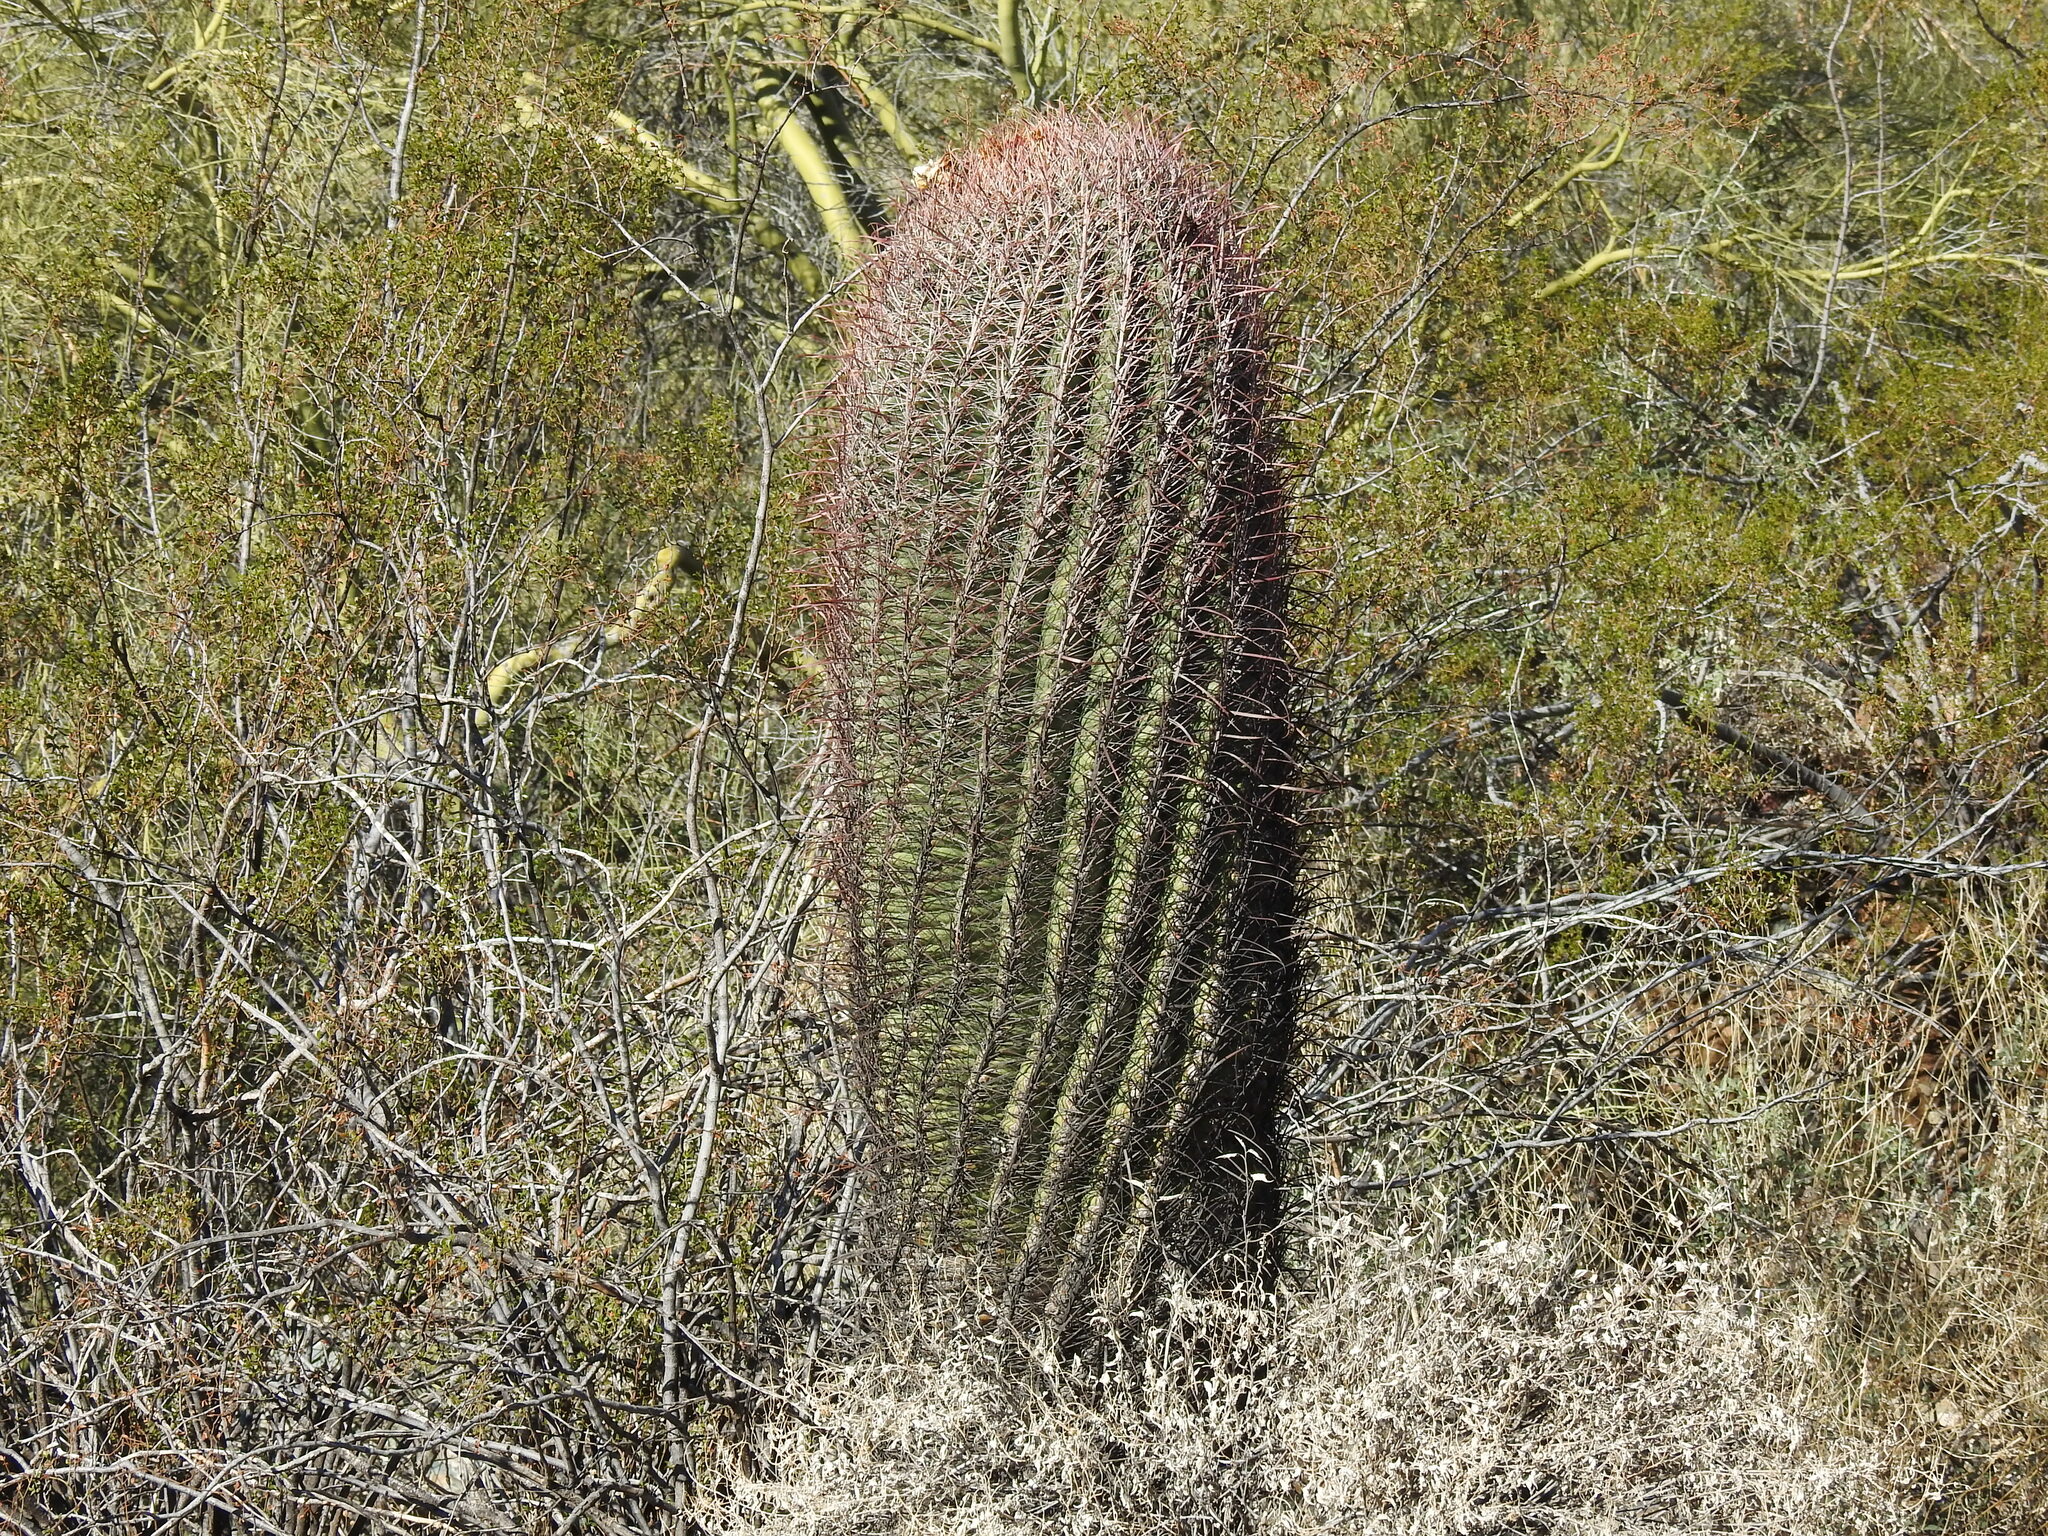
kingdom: Plantae
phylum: Tracheophyta
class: Magnoliopsida
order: Caryophyllales
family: Cactaceae
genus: Ferocactus
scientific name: Ferocactus cylindraceus
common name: California barrel cactus
